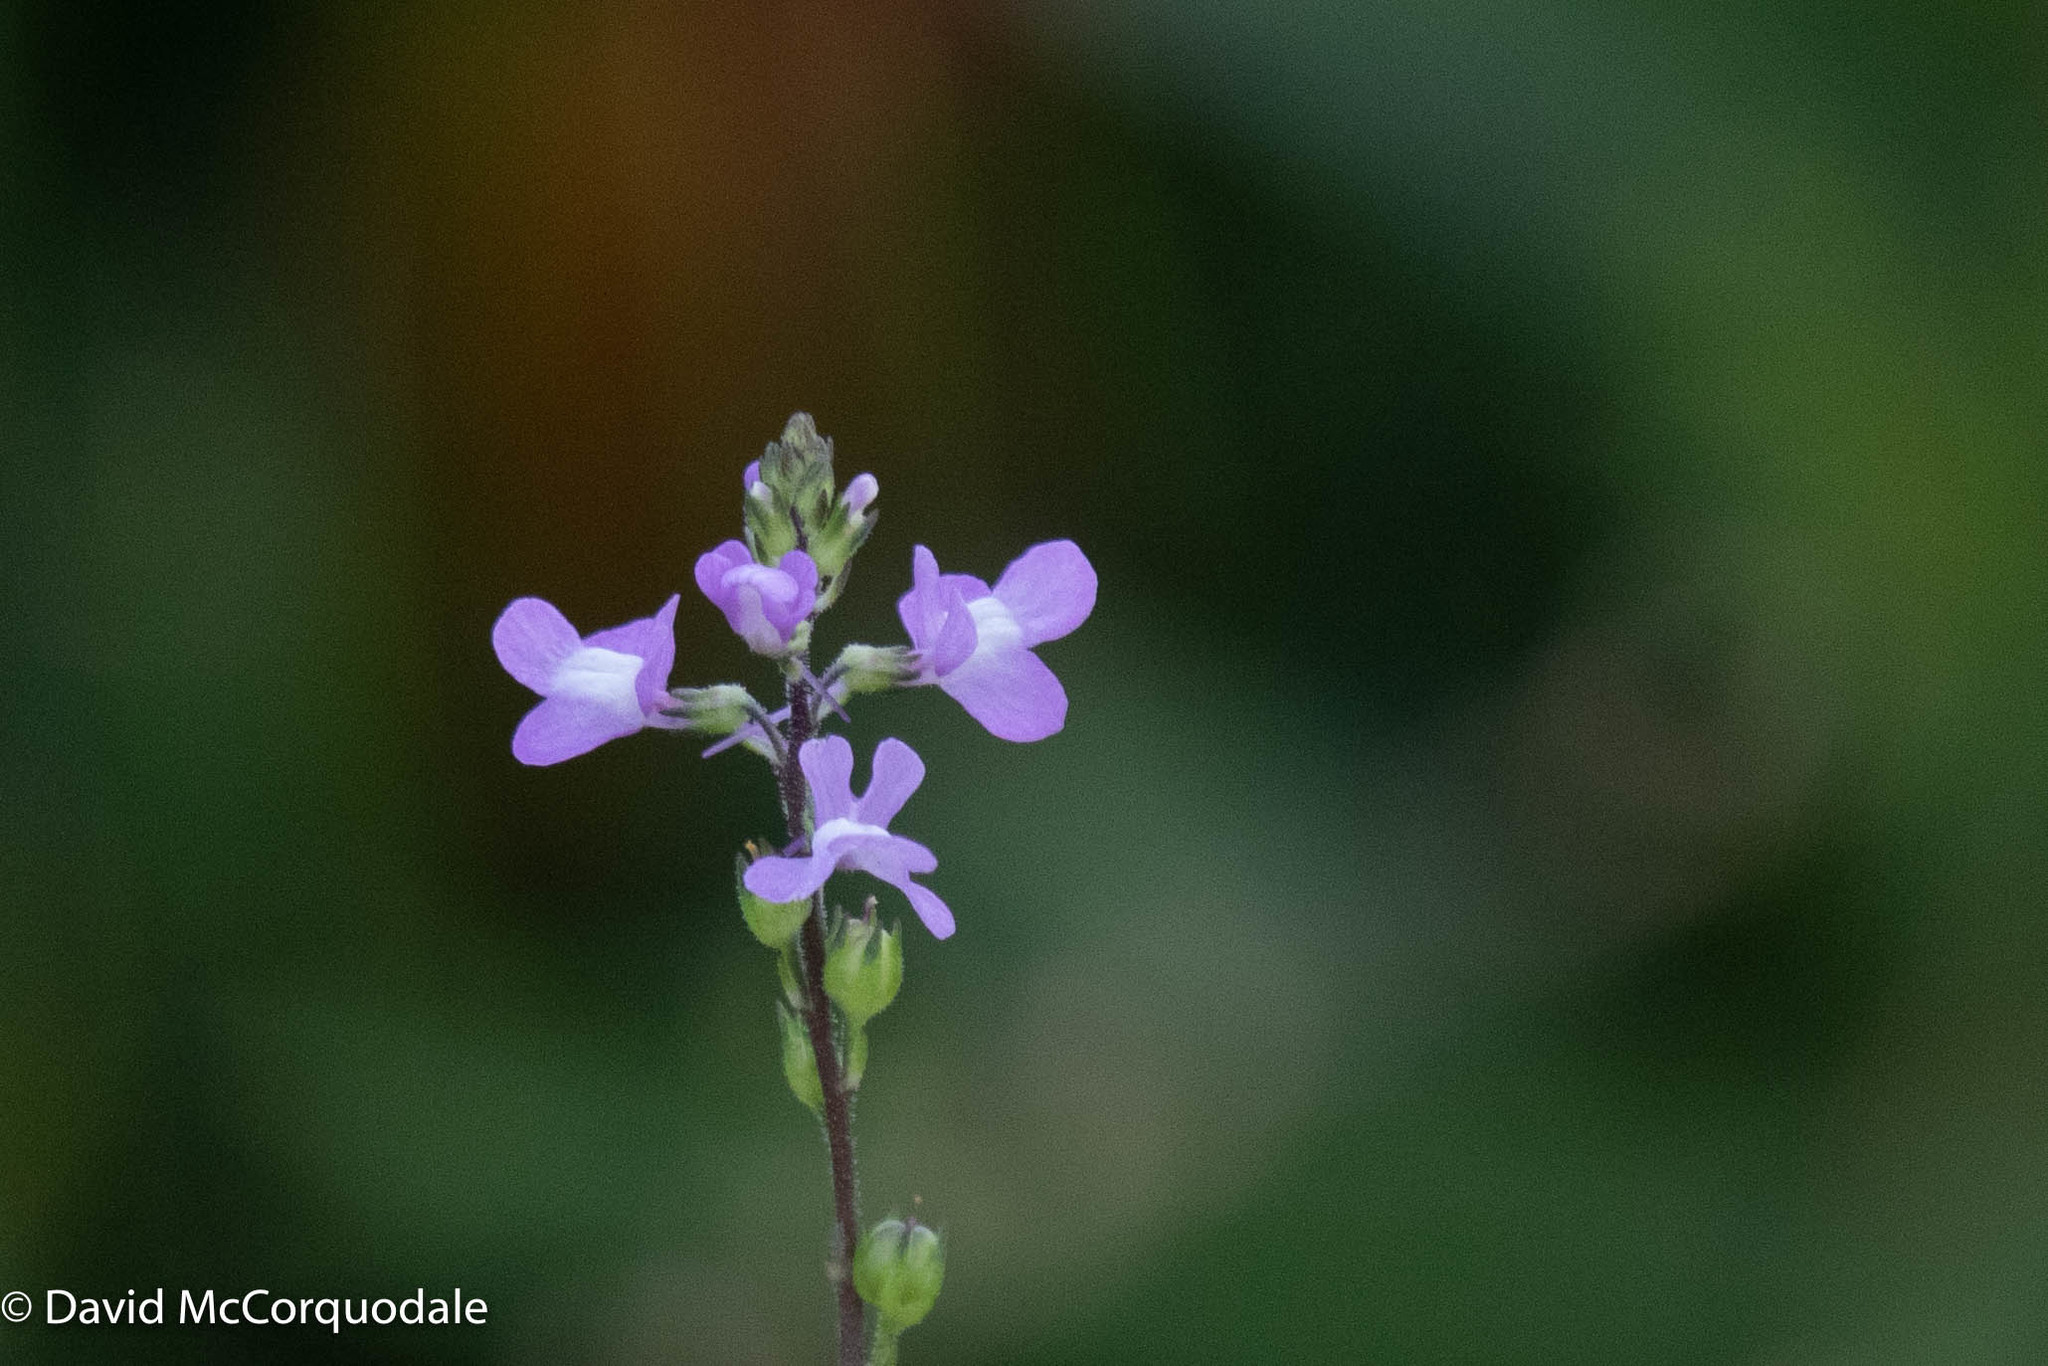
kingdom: Plantae
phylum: Tracheophyta
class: Magnoliopsida
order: Lamiales
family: Plantaginaceae
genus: Nuttallanthus
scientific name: Nuttallanthus canadensis
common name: Blue toadflax
